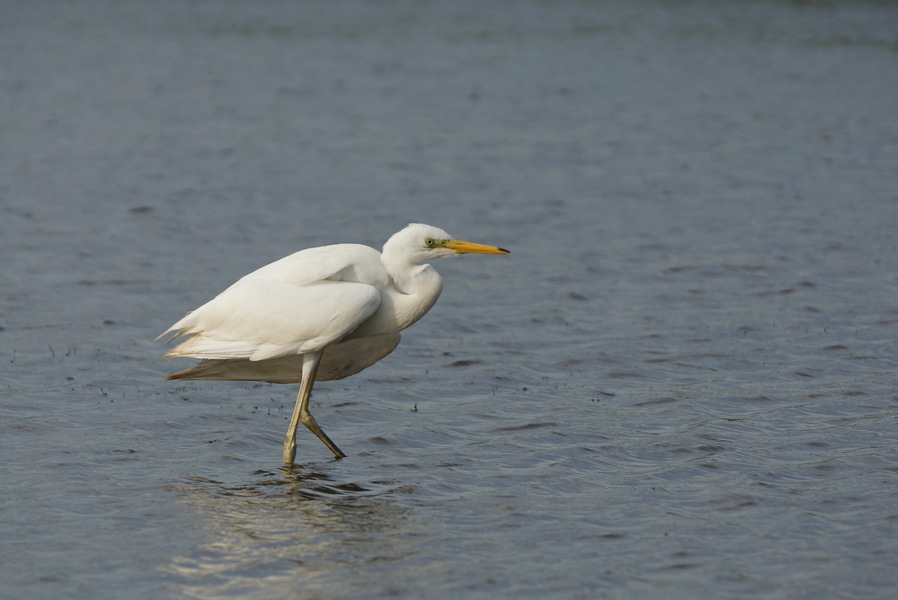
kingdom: Animalia
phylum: Chordata
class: Aves
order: Pelecaniformes
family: Ardeidae
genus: Ardea
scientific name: Ardea alba
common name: Great egret
